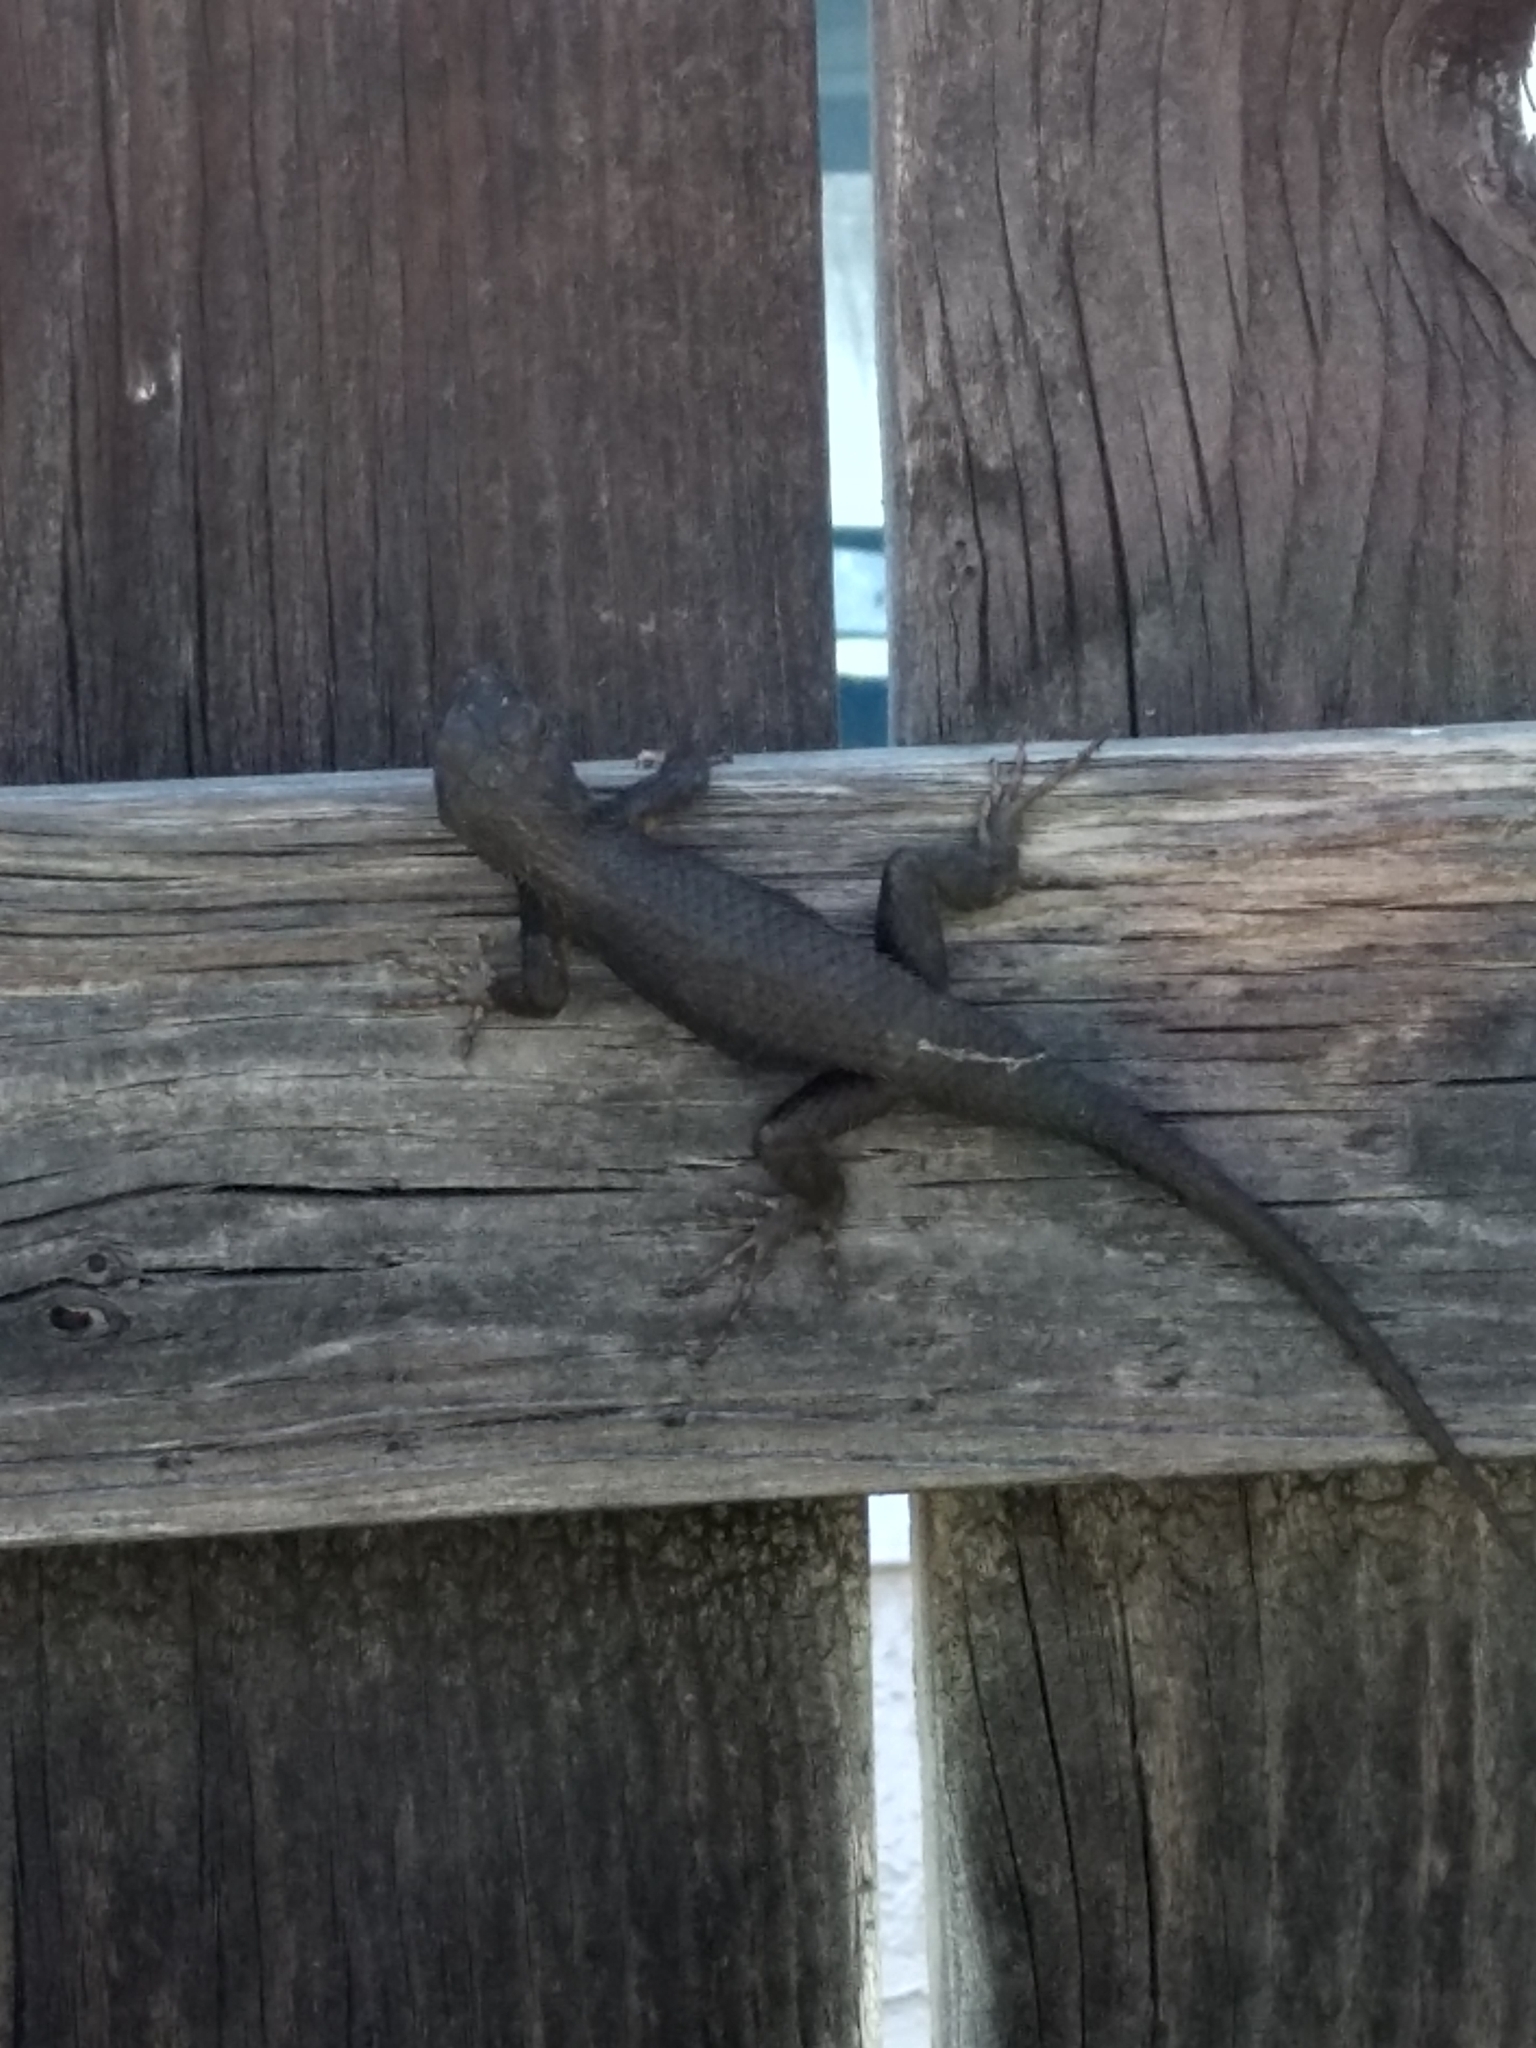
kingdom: Animalia
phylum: Chordata
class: Squamata
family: Phrynosomatidae
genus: Sceloporus
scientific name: Sceloporus occidentalis
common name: Western fence lizard
